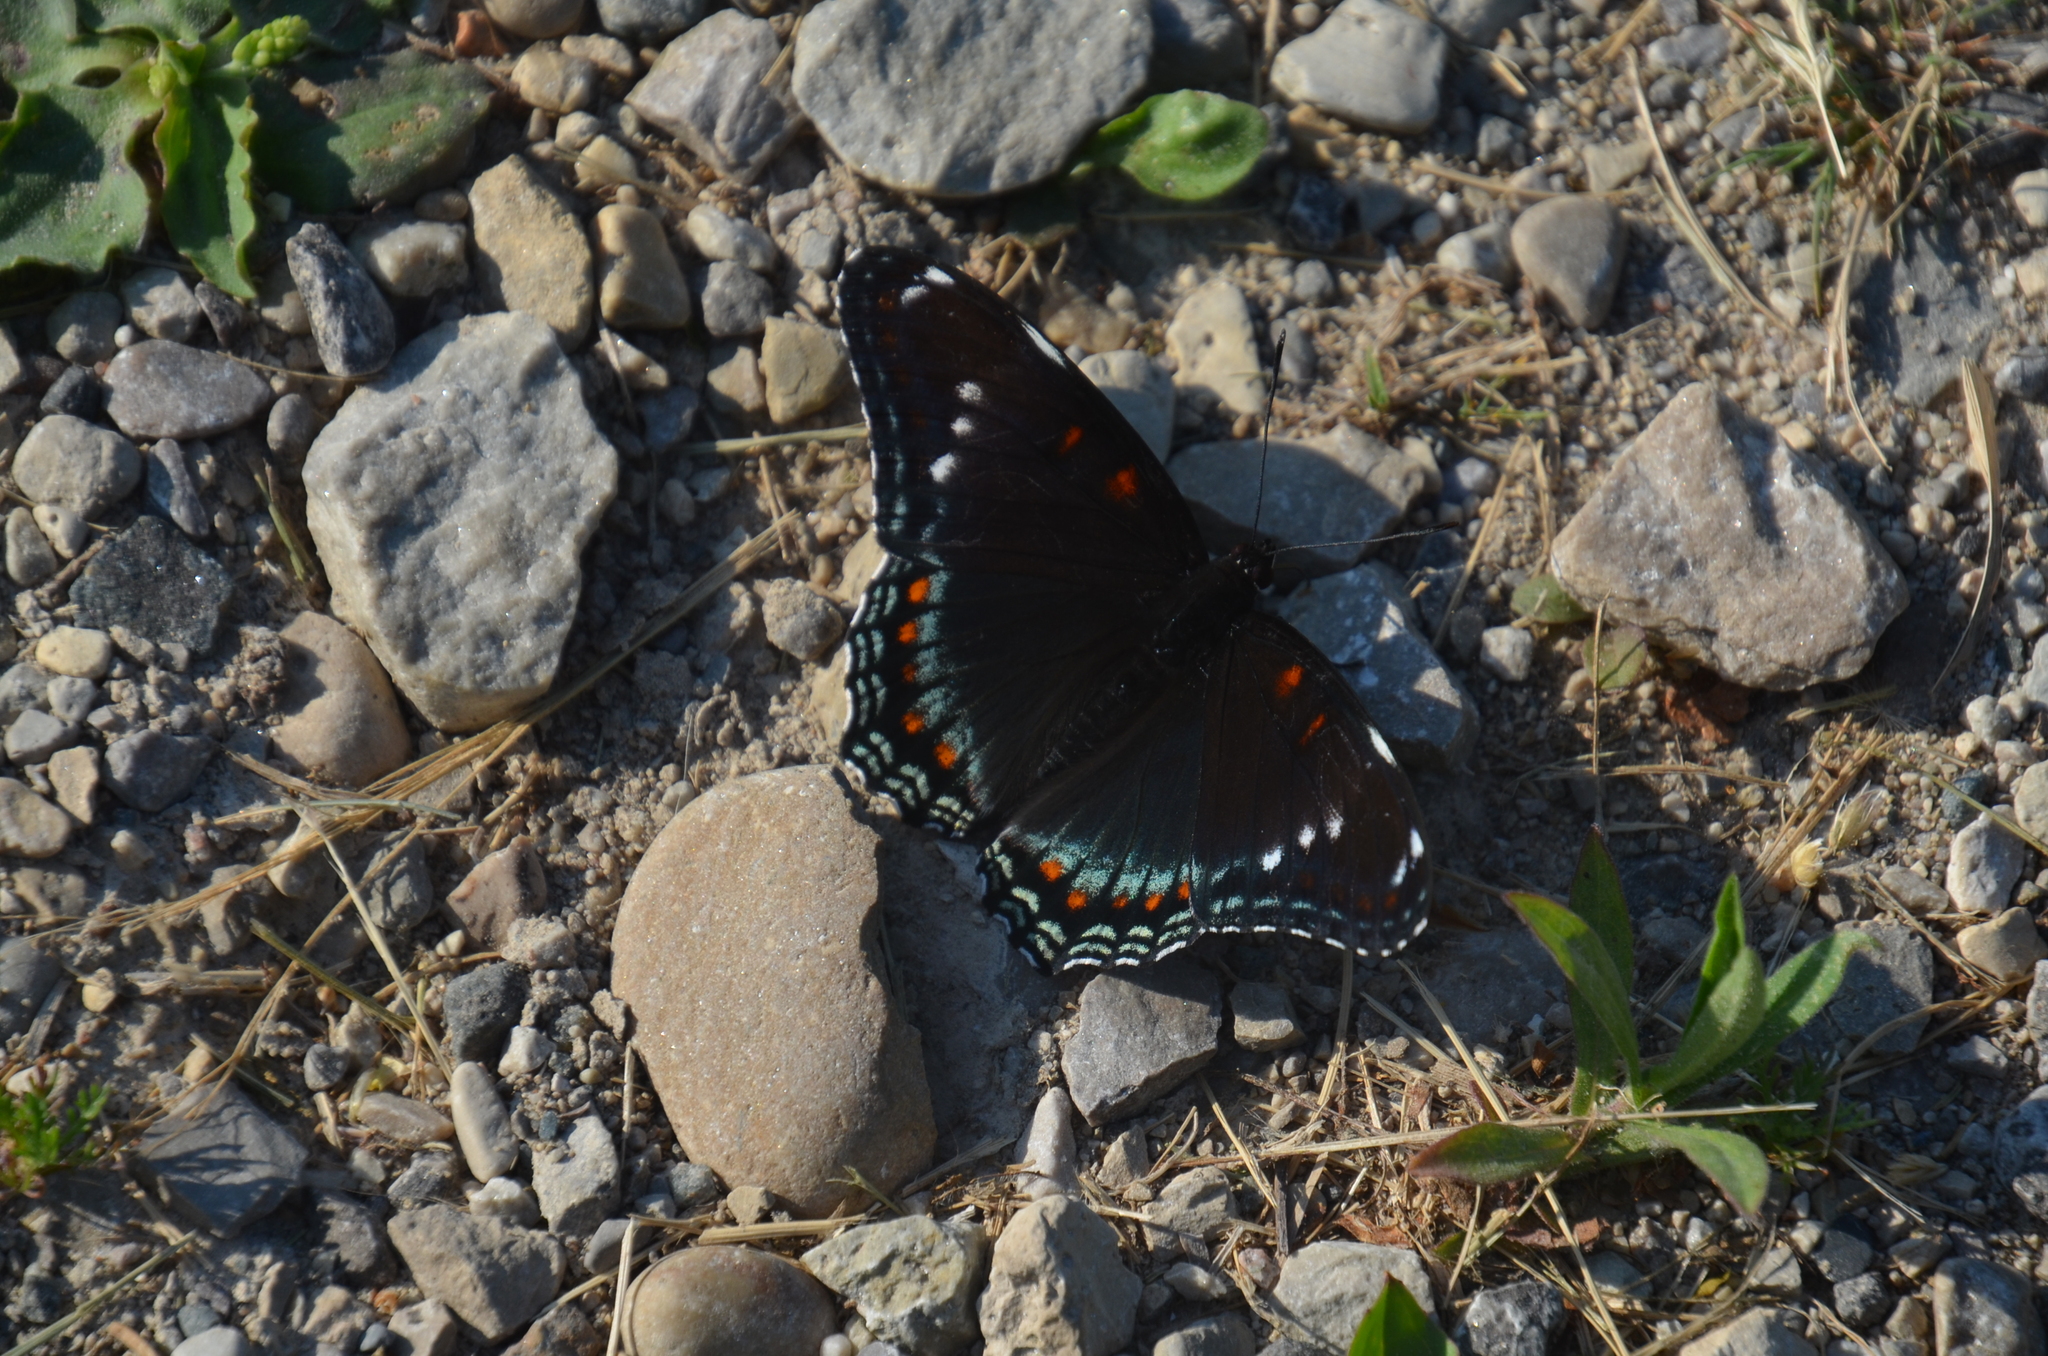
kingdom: Animalia
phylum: Arthropoda
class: Insecta
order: Lepidoptera
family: Nymphalidae
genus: Limenitis
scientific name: Limenitis
